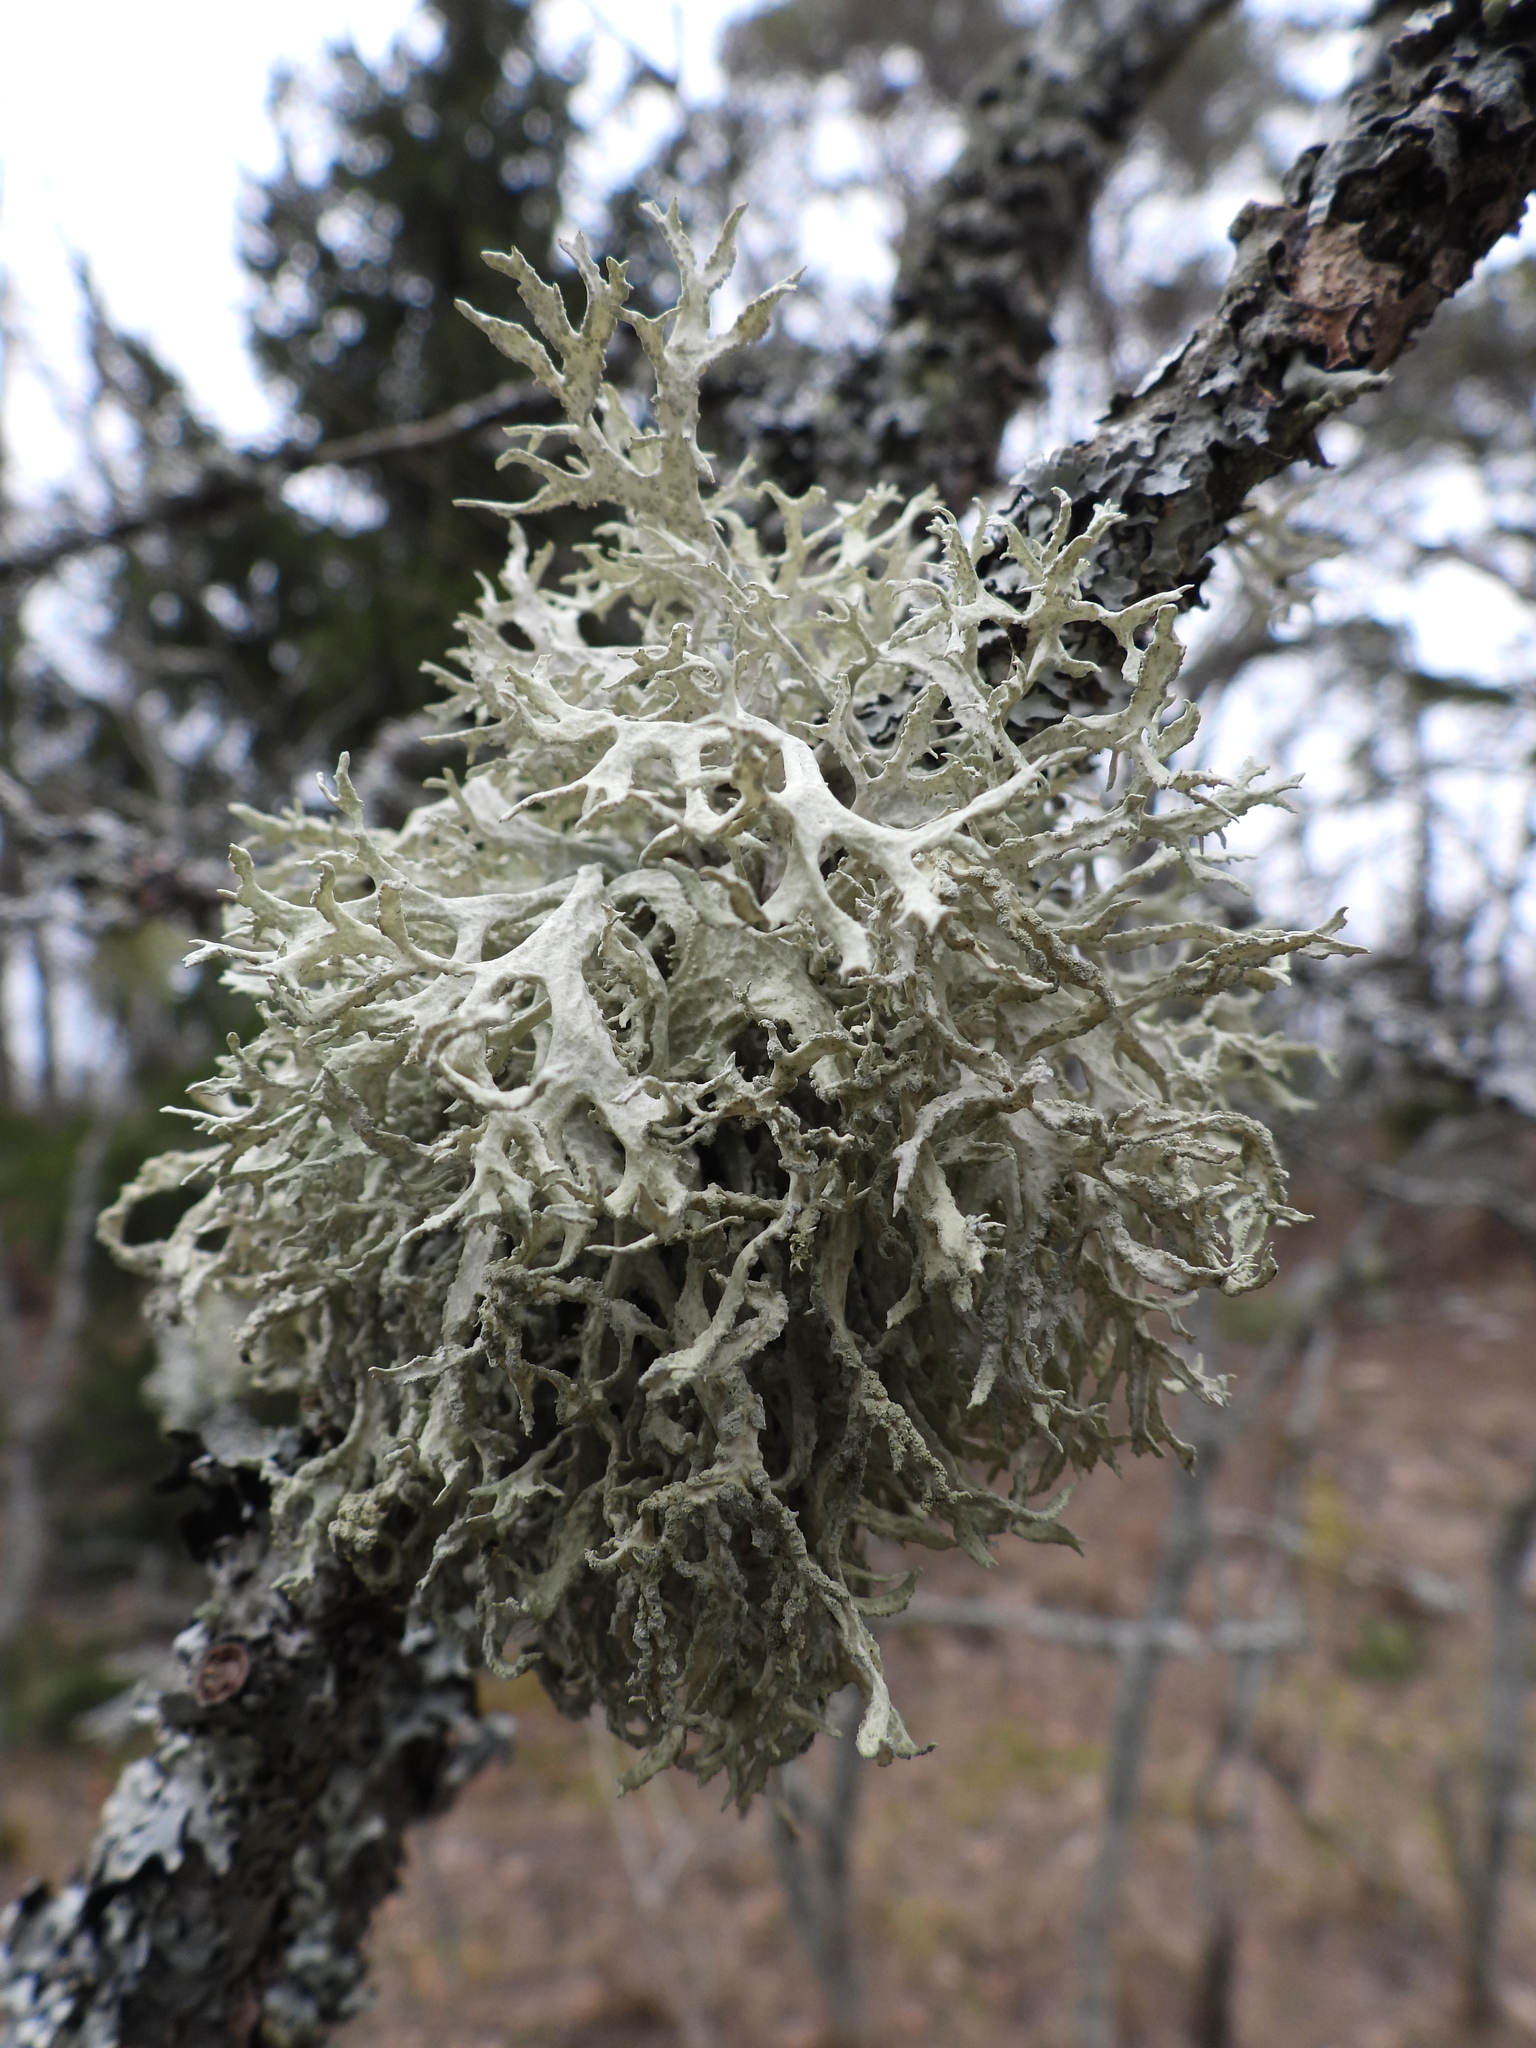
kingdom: Fungi
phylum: Ascomycota
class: Lecanoromycetes
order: Lecanorales
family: Parmeliaceae
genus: Evernia
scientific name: Evernia prunastri
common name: Oak moss
